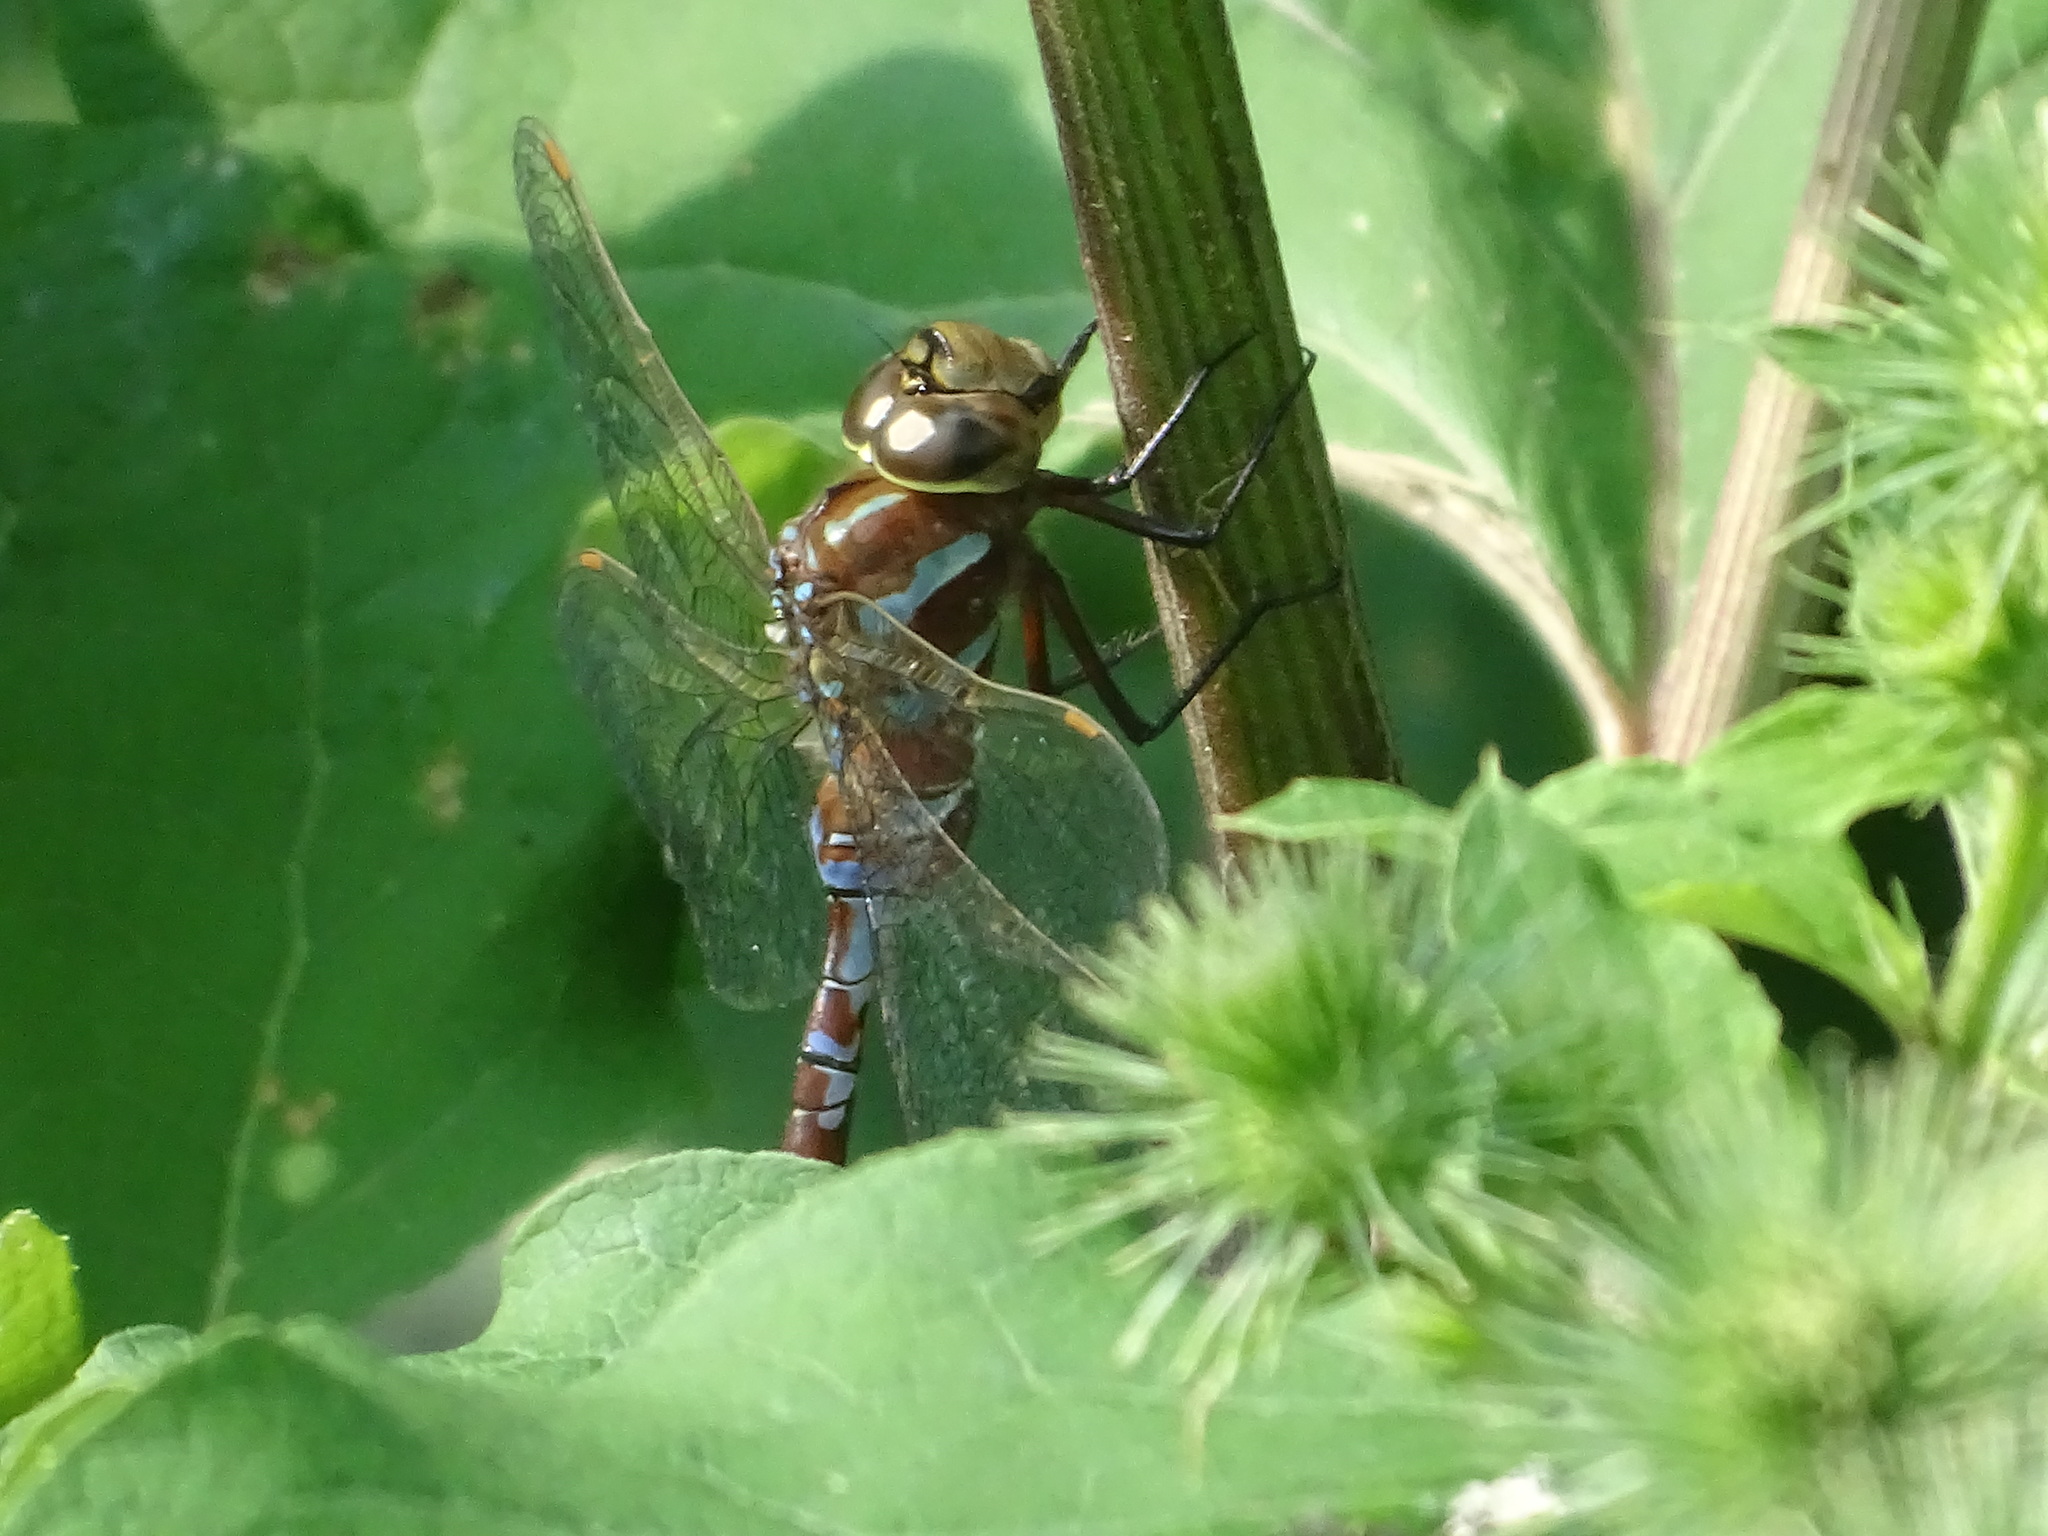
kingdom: Animalia
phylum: Arthropoda
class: Insecta
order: Odonata
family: Aeshnidae
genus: Aeshna
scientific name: Aeshna constricta
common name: Lance-tipped darner
